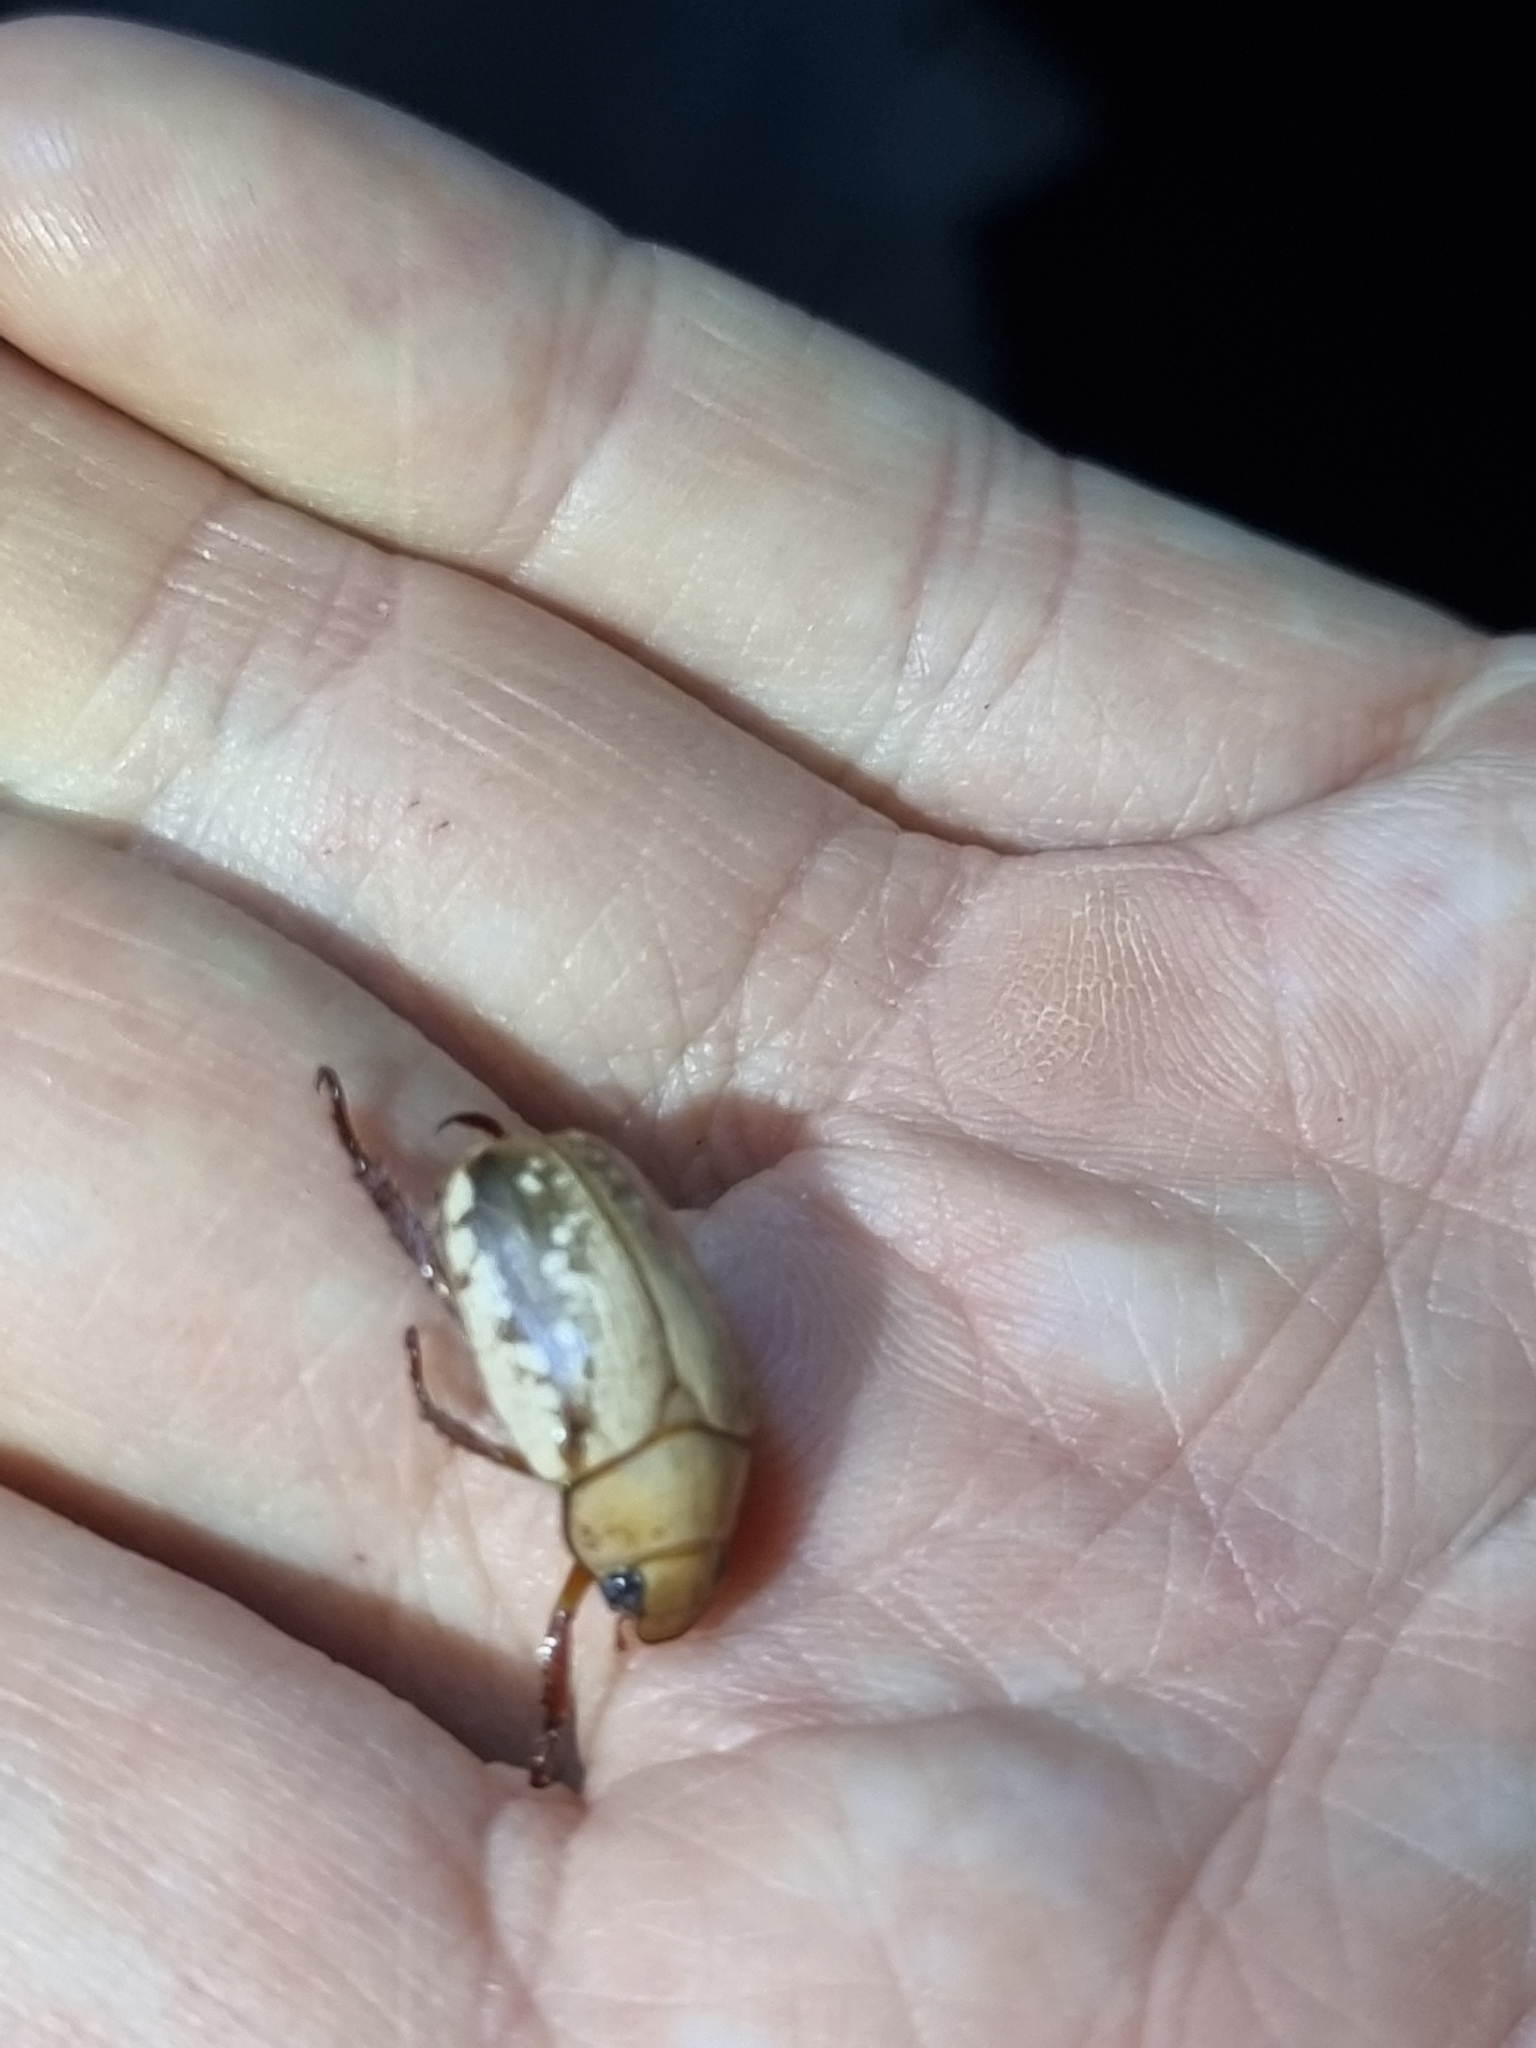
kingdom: Animalia
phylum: Arthropoda
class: Insecta
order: Coleoptera
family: Scarabaeidae
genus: Anoplognathus
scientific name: Anoplognathus concolor
